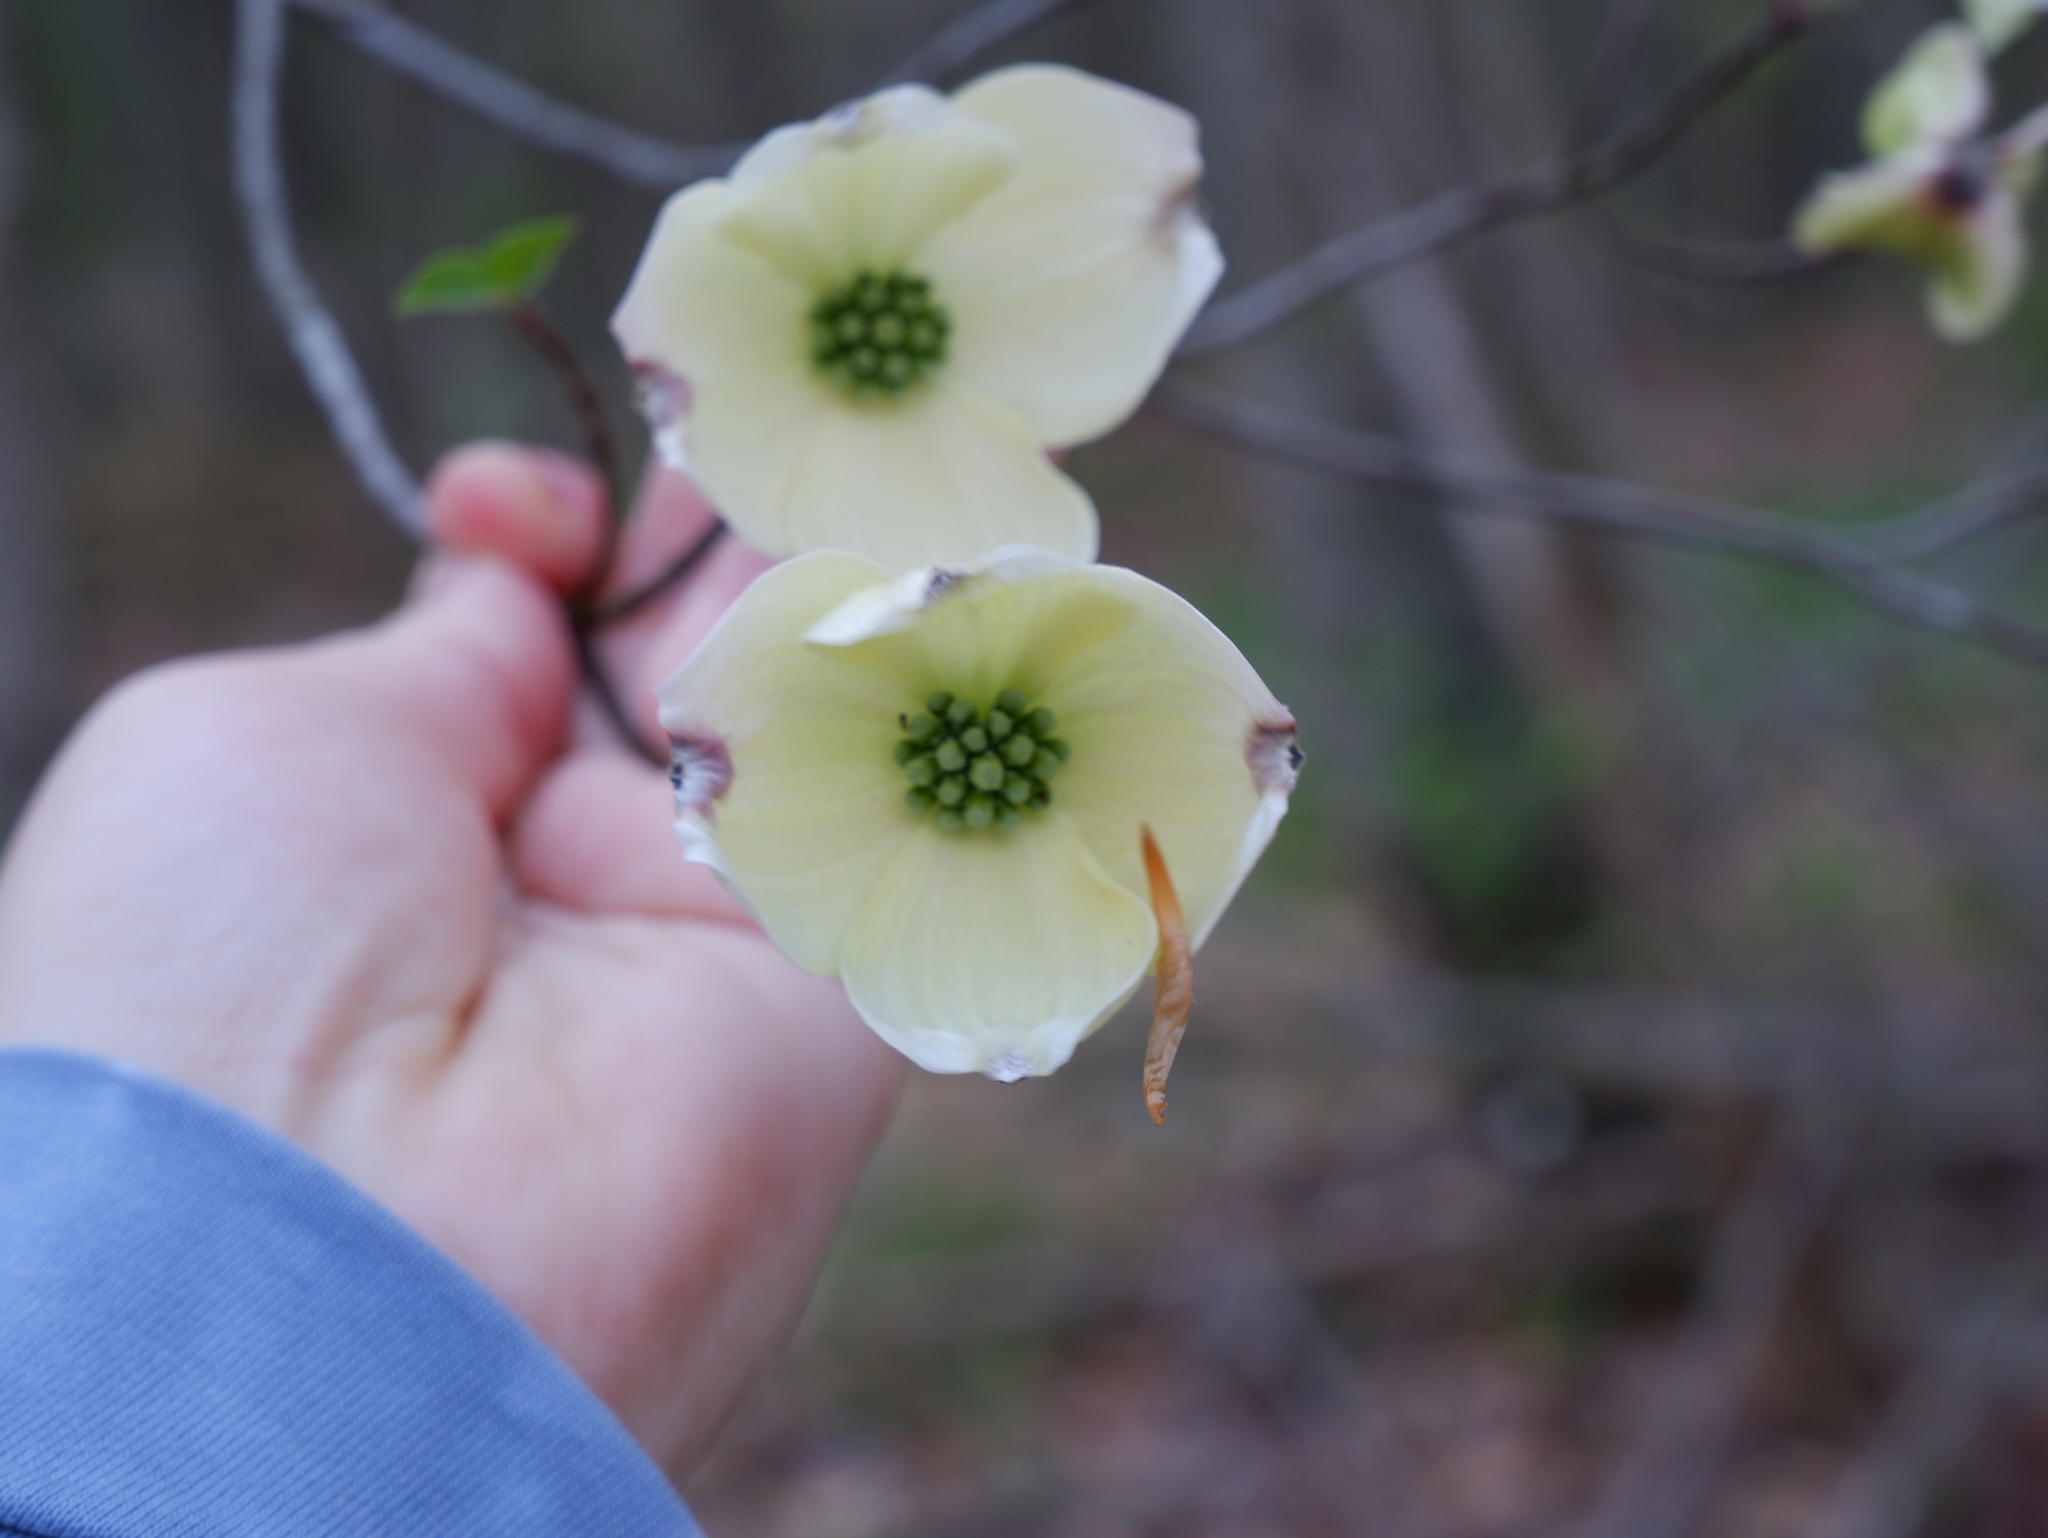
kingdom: Plantae
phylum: Tracheophyta
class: Magnoliopsida
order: Cornales
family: Cornaceae
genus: Cornus
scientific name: Cornus florida
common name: Flowering dogwood
